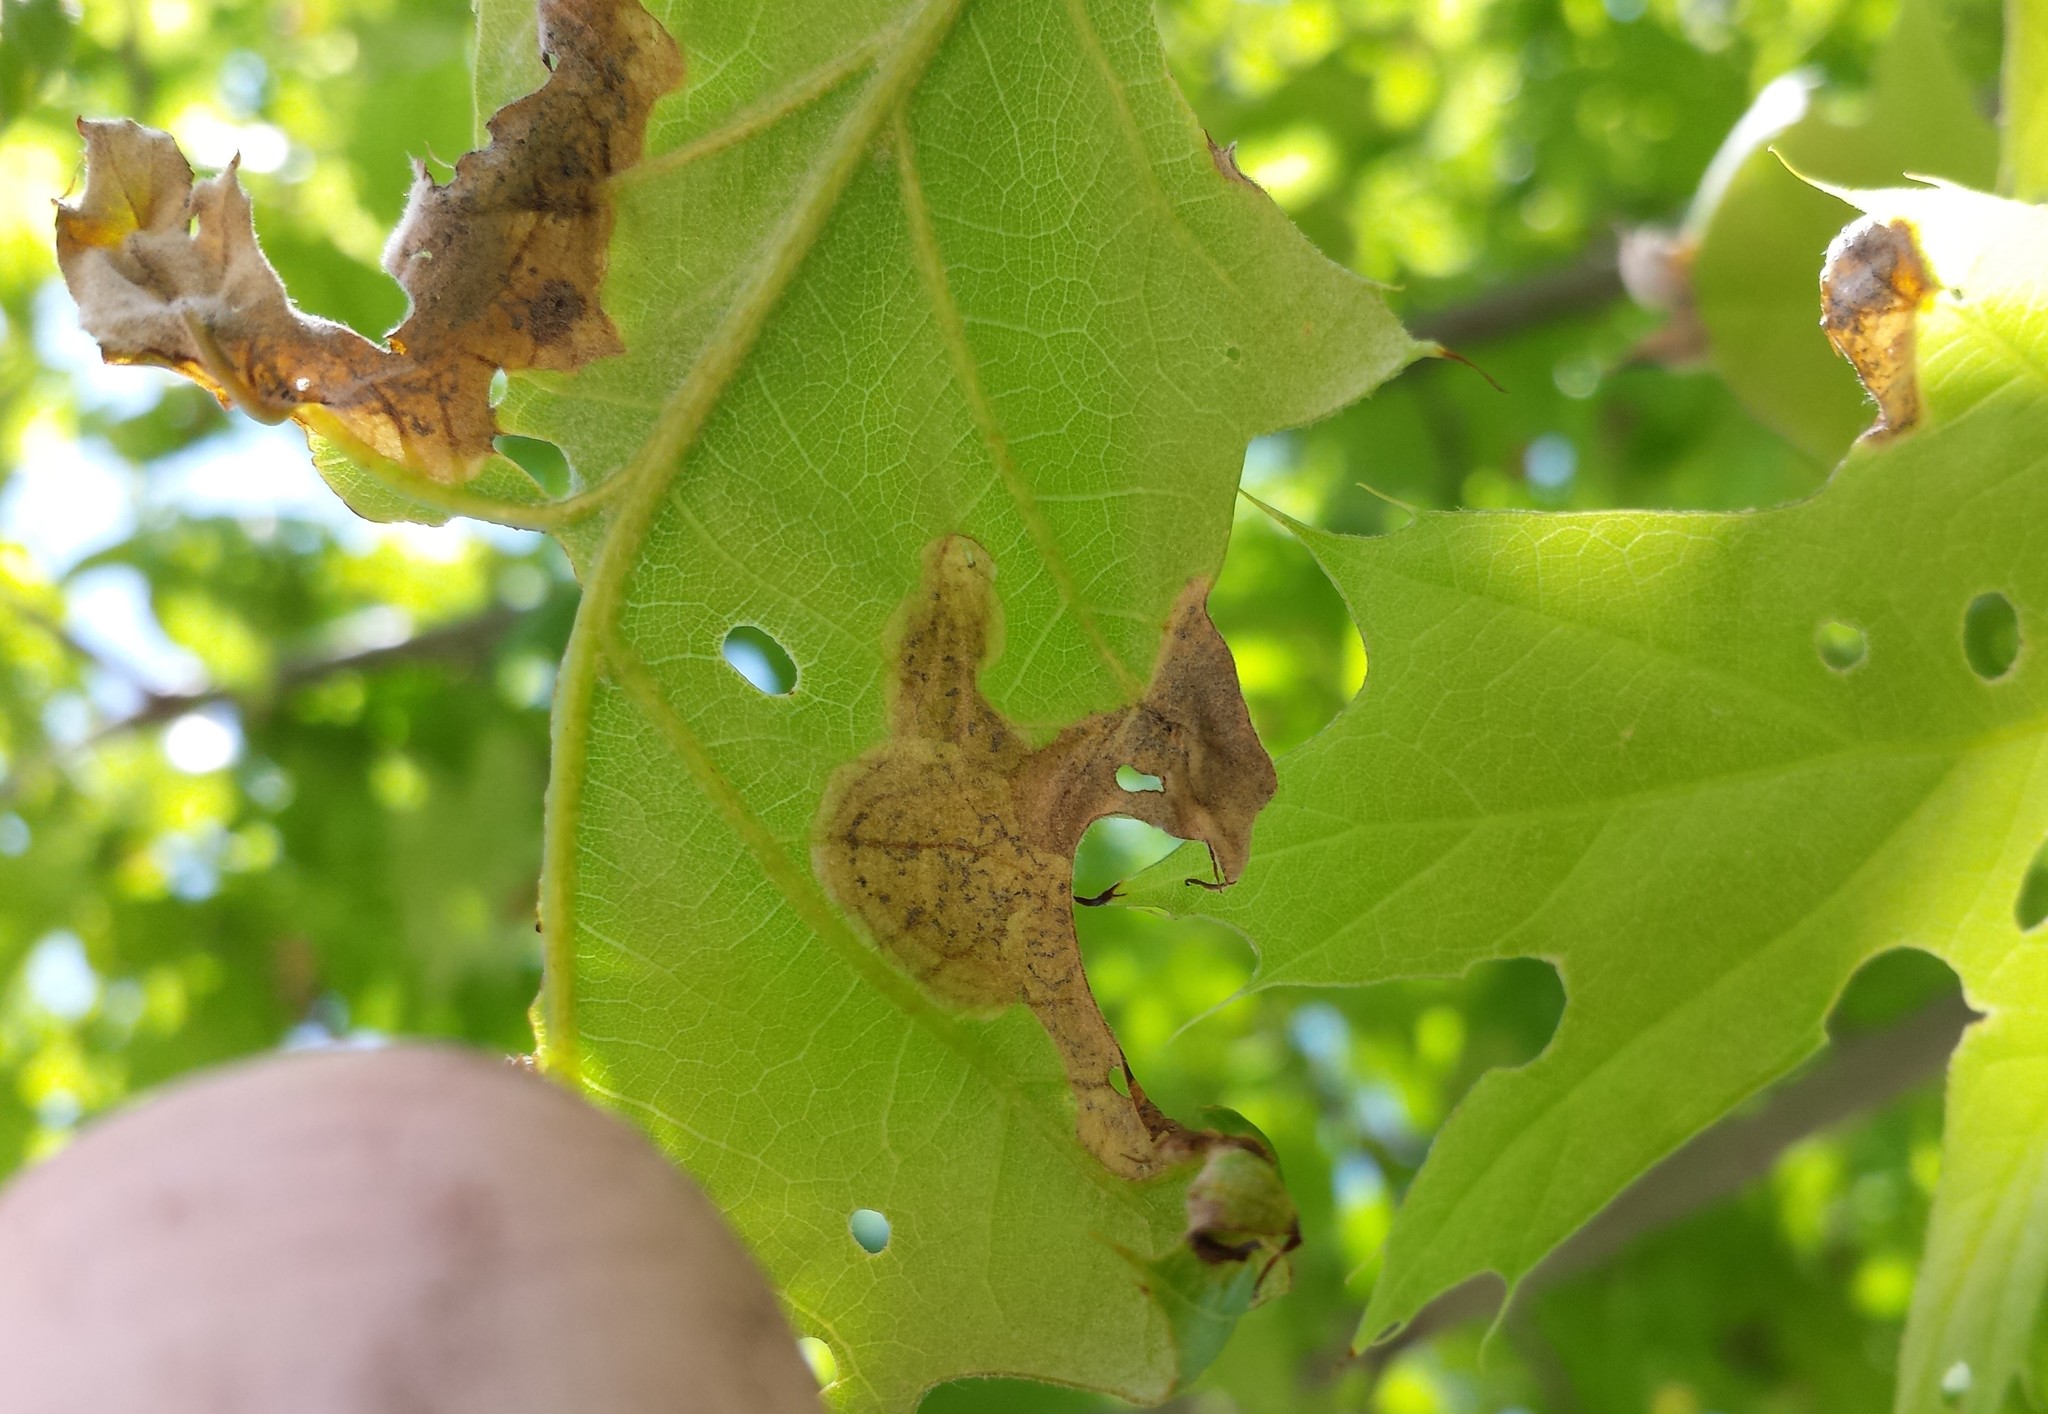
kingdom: Animalia
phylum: Arthropoda
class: Insecta
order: Diptera
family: Agromyzidae
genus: Japanagromyza
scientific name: Japanagromyza viridula
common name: Oak shothole leafminer
